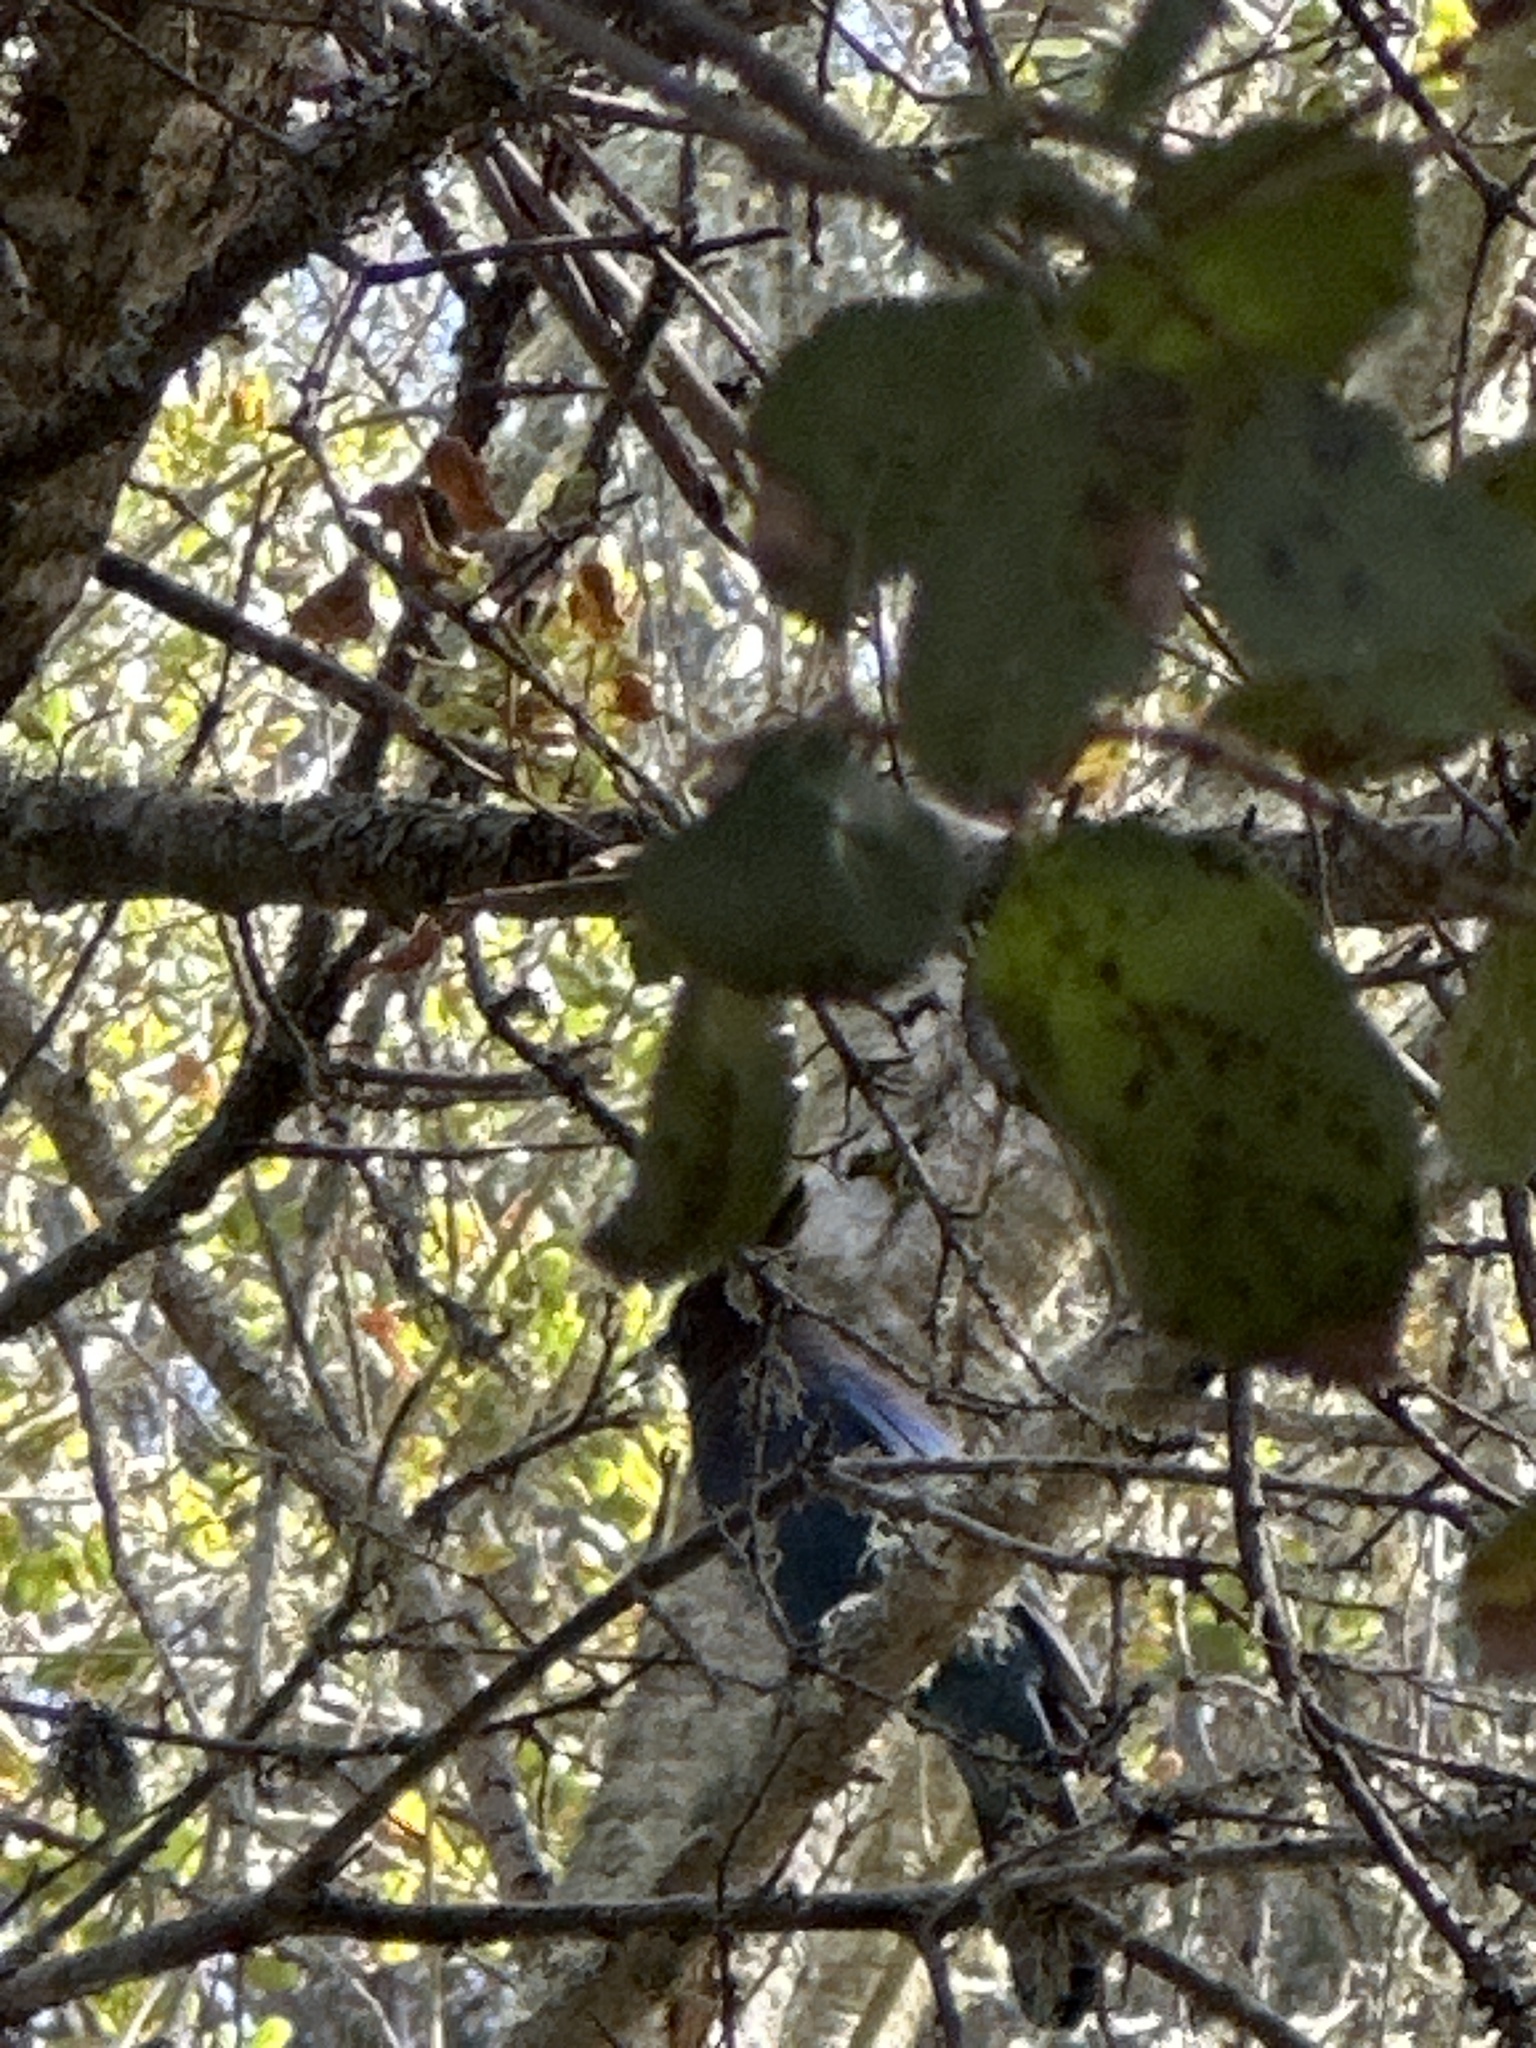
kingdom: Animalia
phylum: Chordata
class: Aves
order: Passeriformes
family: Corvidae
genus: Cyanocitta
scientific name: Cyanocitta stelleri
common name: Steller's jay
